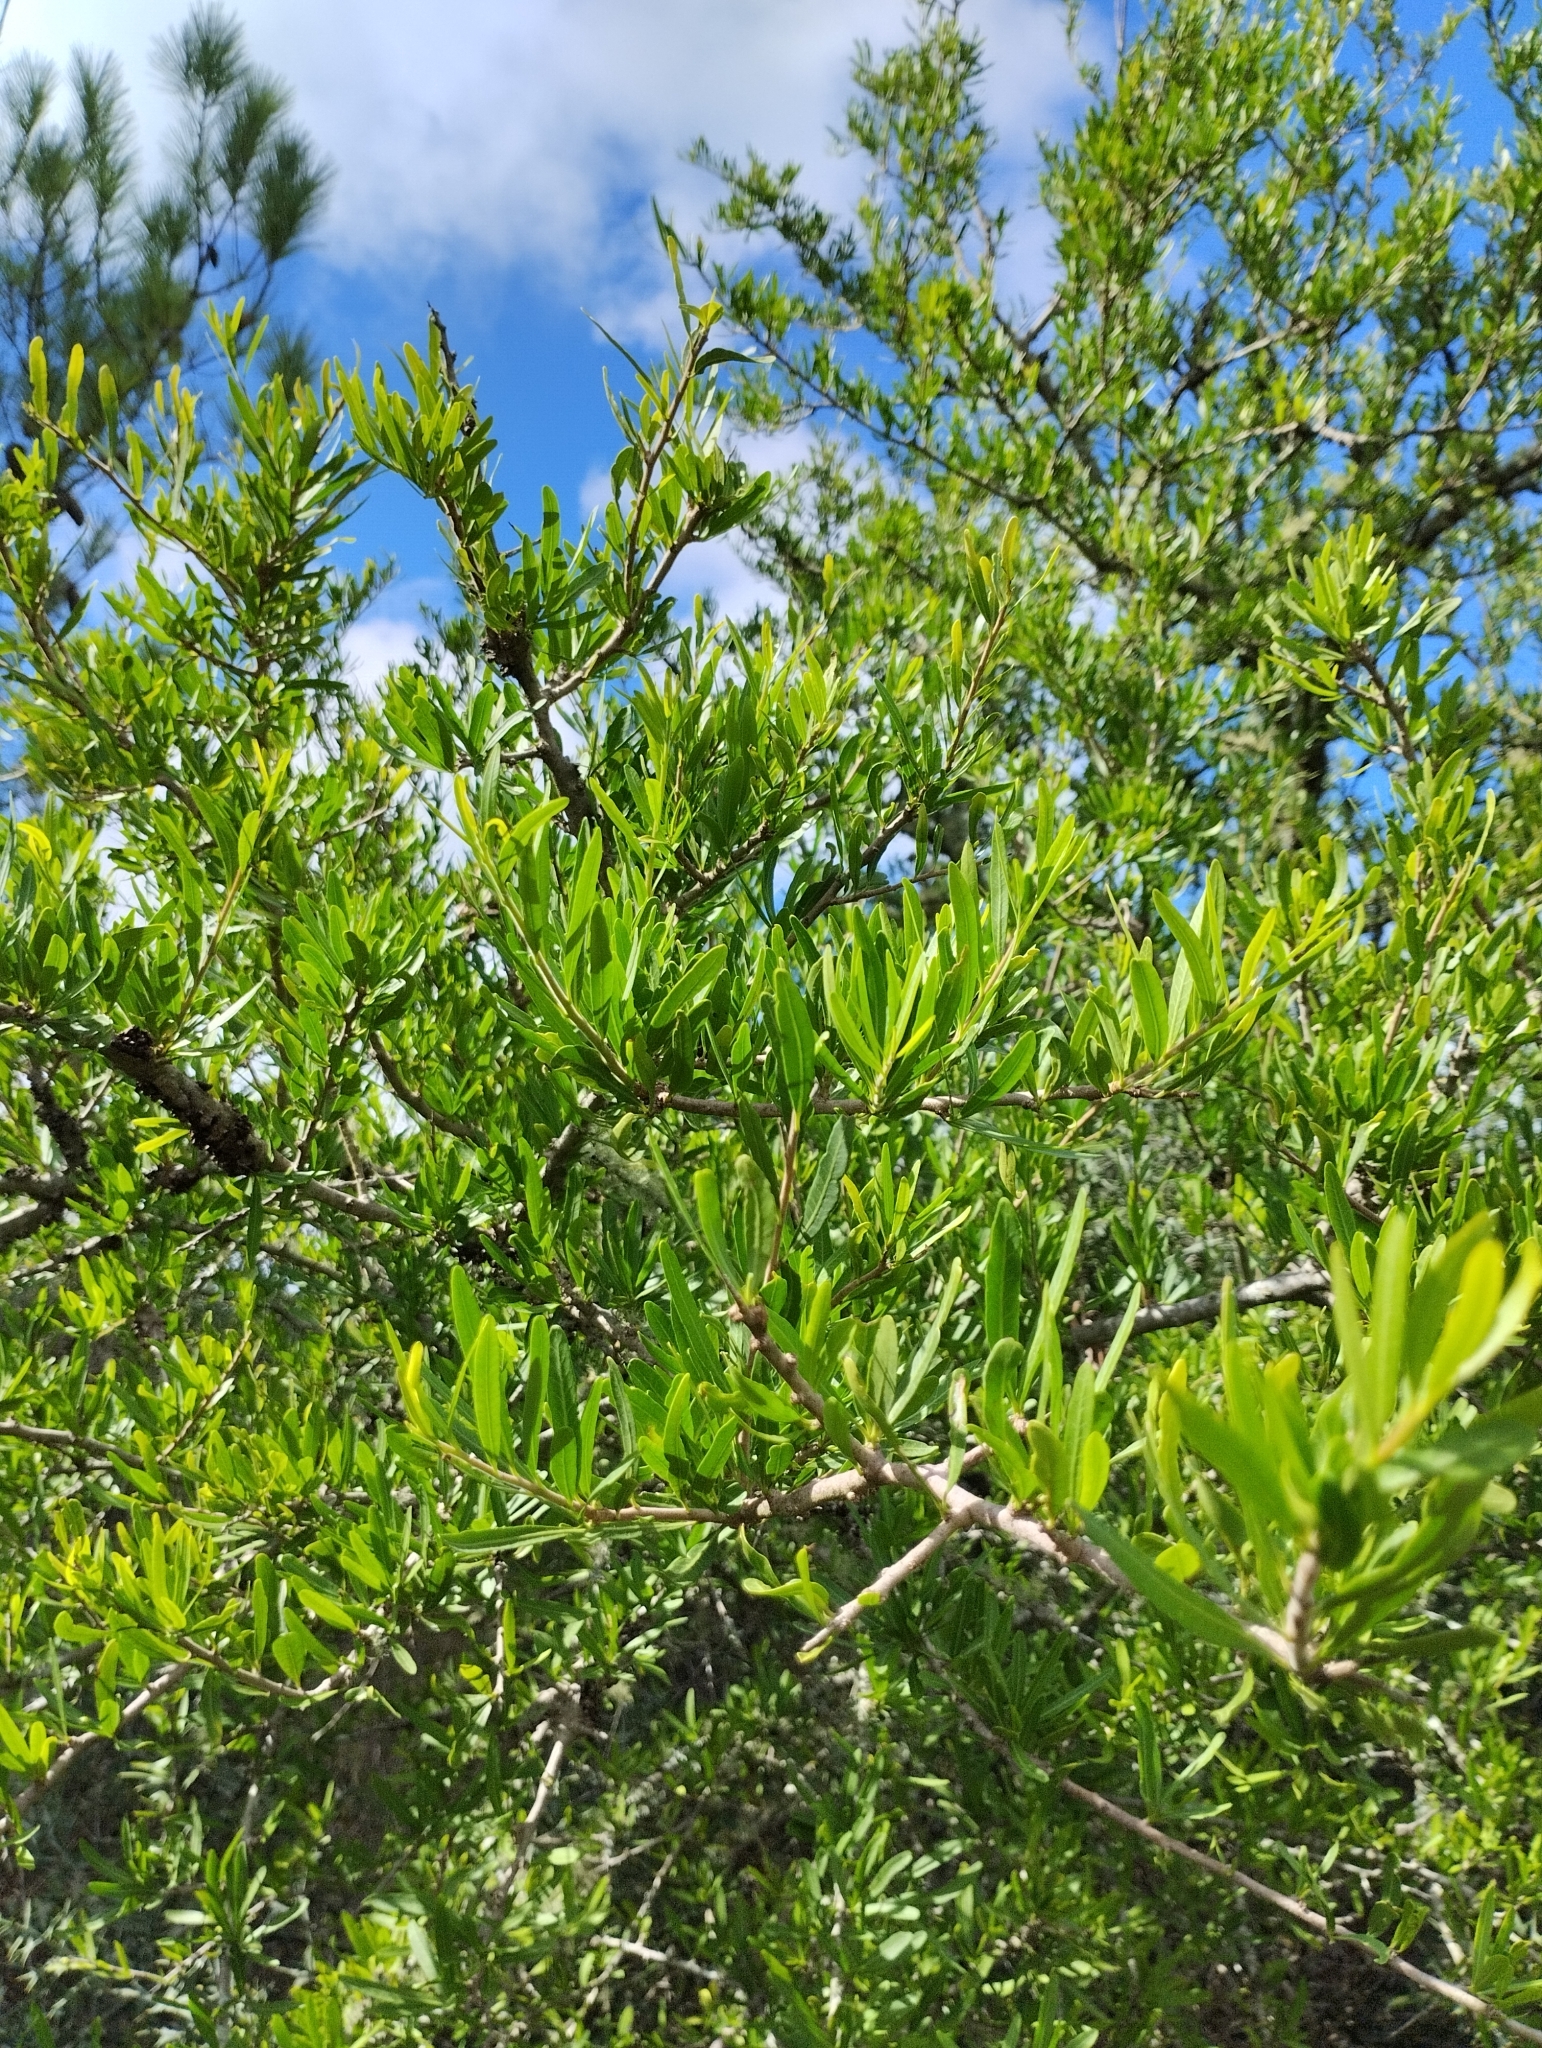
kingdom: Plantae
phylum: Tracheophyta
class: Magnoliopsida
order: Sapindales
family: Anacardiaceae
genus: Schinus
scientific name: Schinus longifolia
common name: Longleaf peppertree
